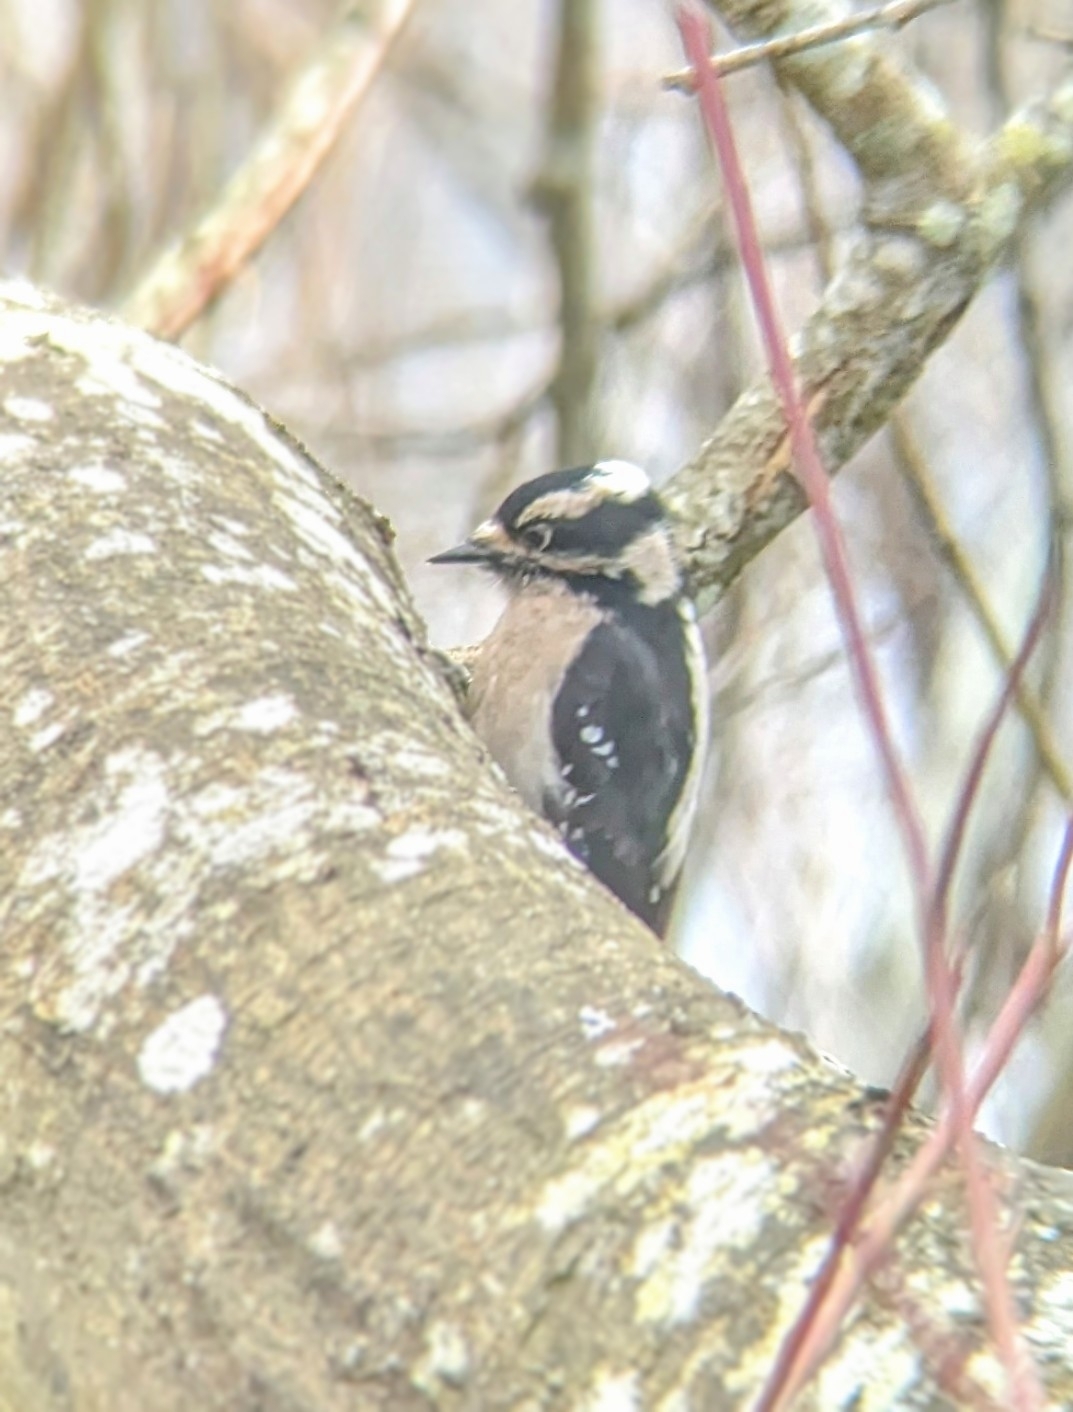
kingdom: Animalia
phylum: Chordata
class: Aves
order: Piciformes
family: Picidae
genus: Dryobates
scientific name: Dryobates pubescens
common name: Downy woodpecker
